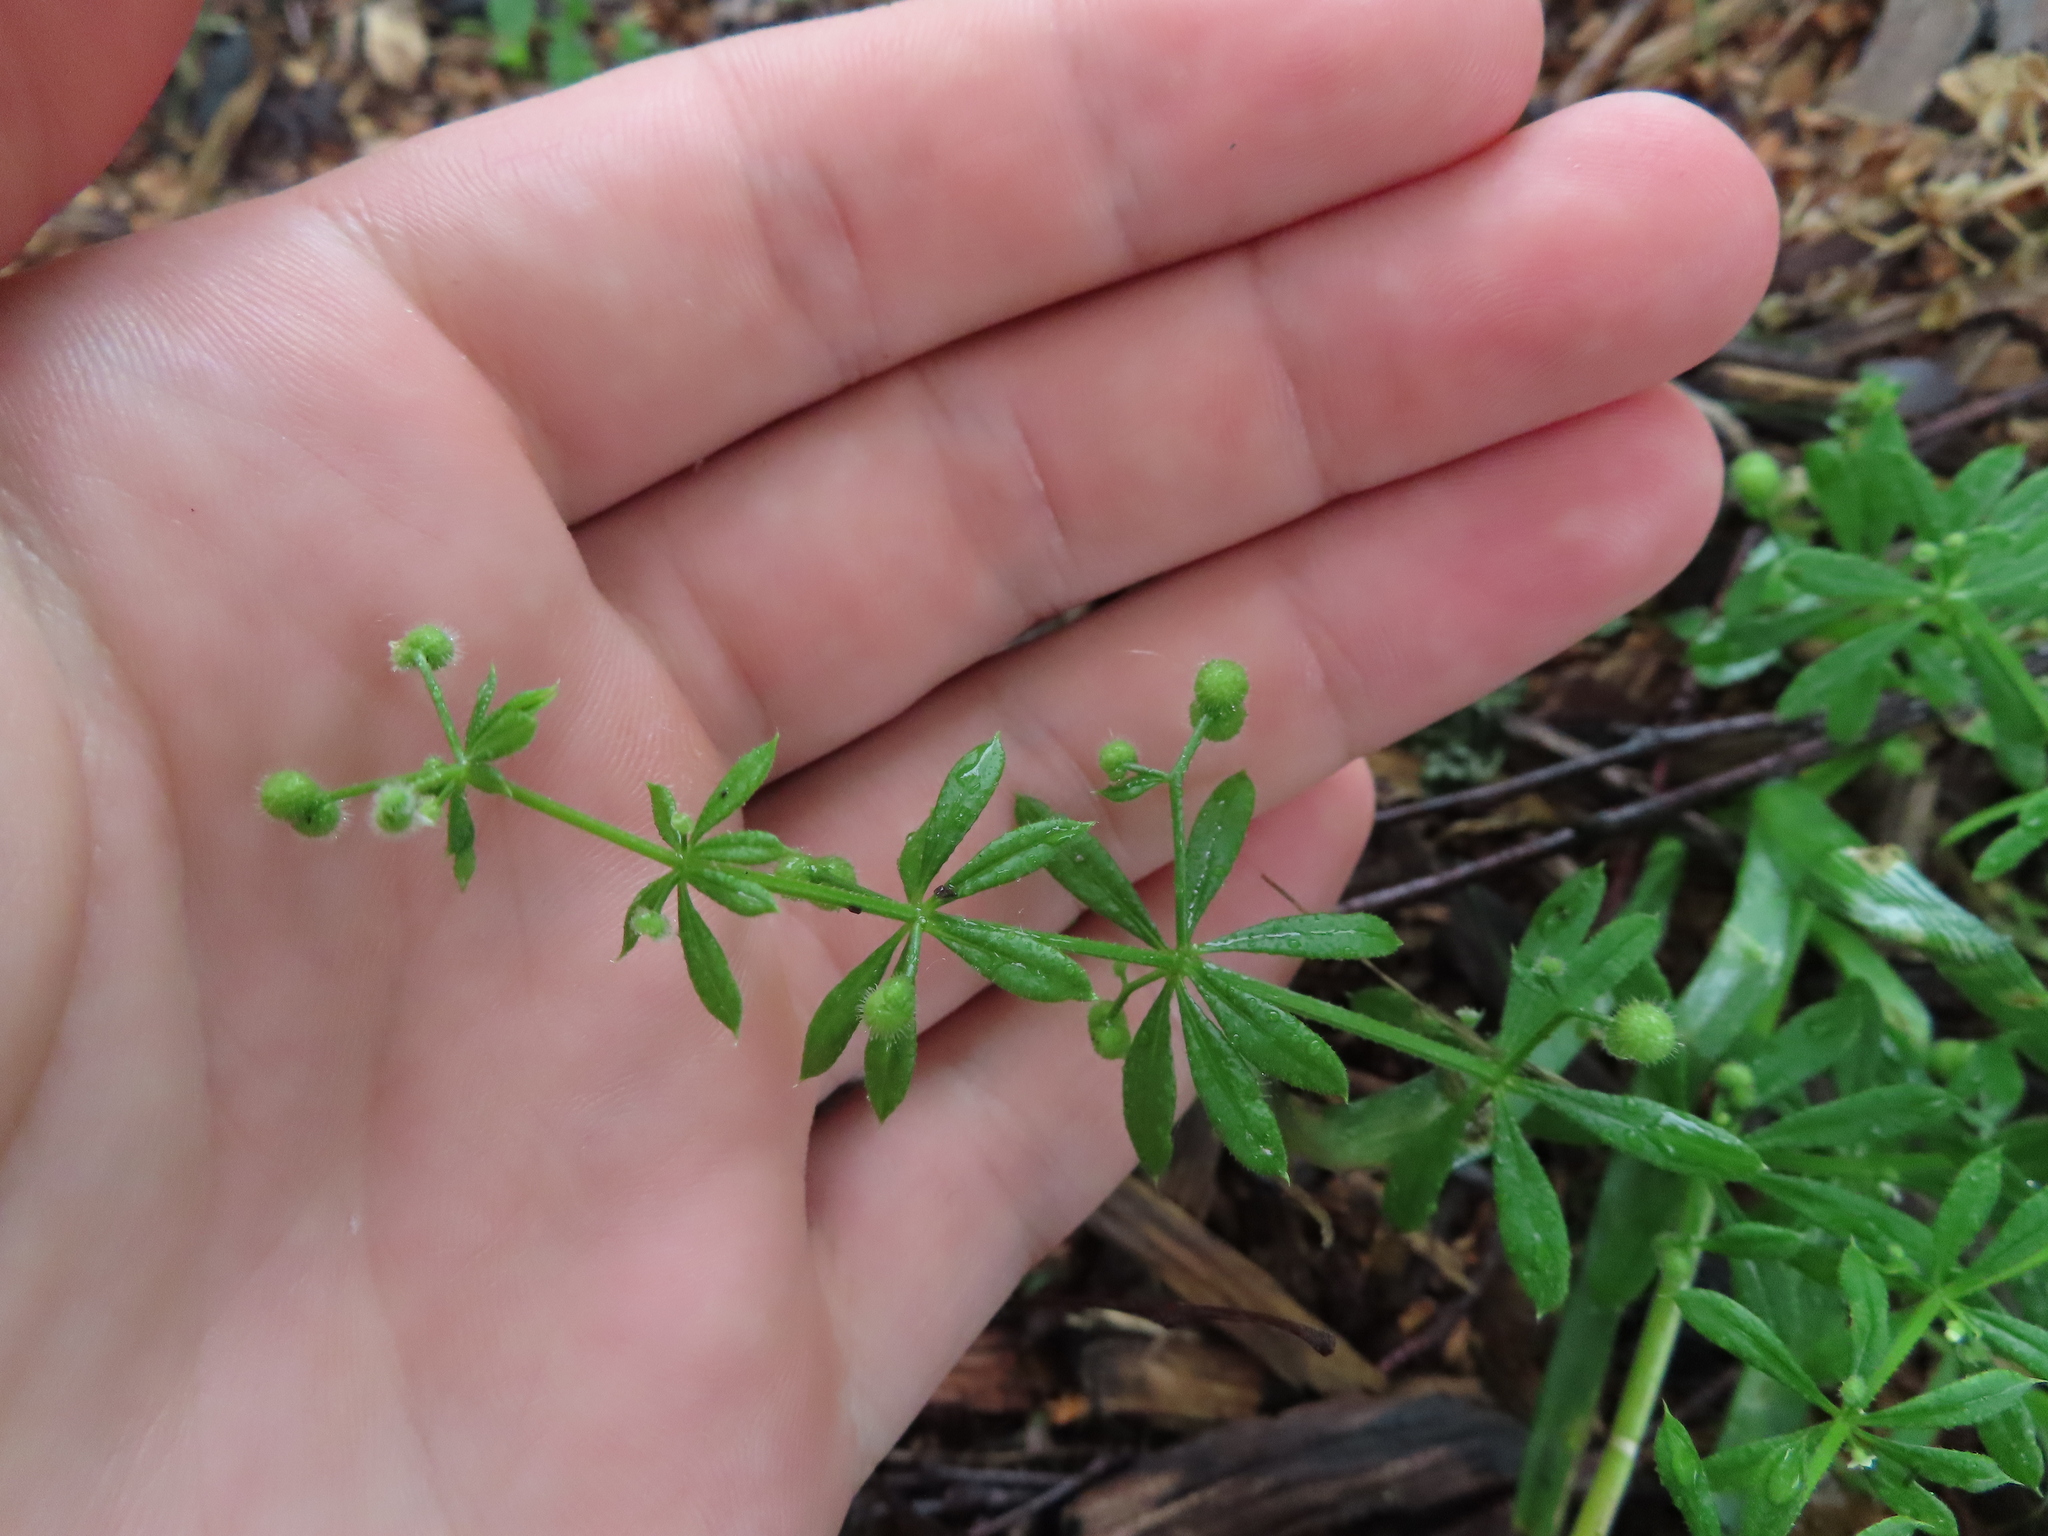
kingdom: Plantae
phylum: Tracheophyta
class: Magnoliopsida
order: Gentianales
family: Rubiaceae
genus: Galium
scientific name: Galium aparine
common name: Cleavers
